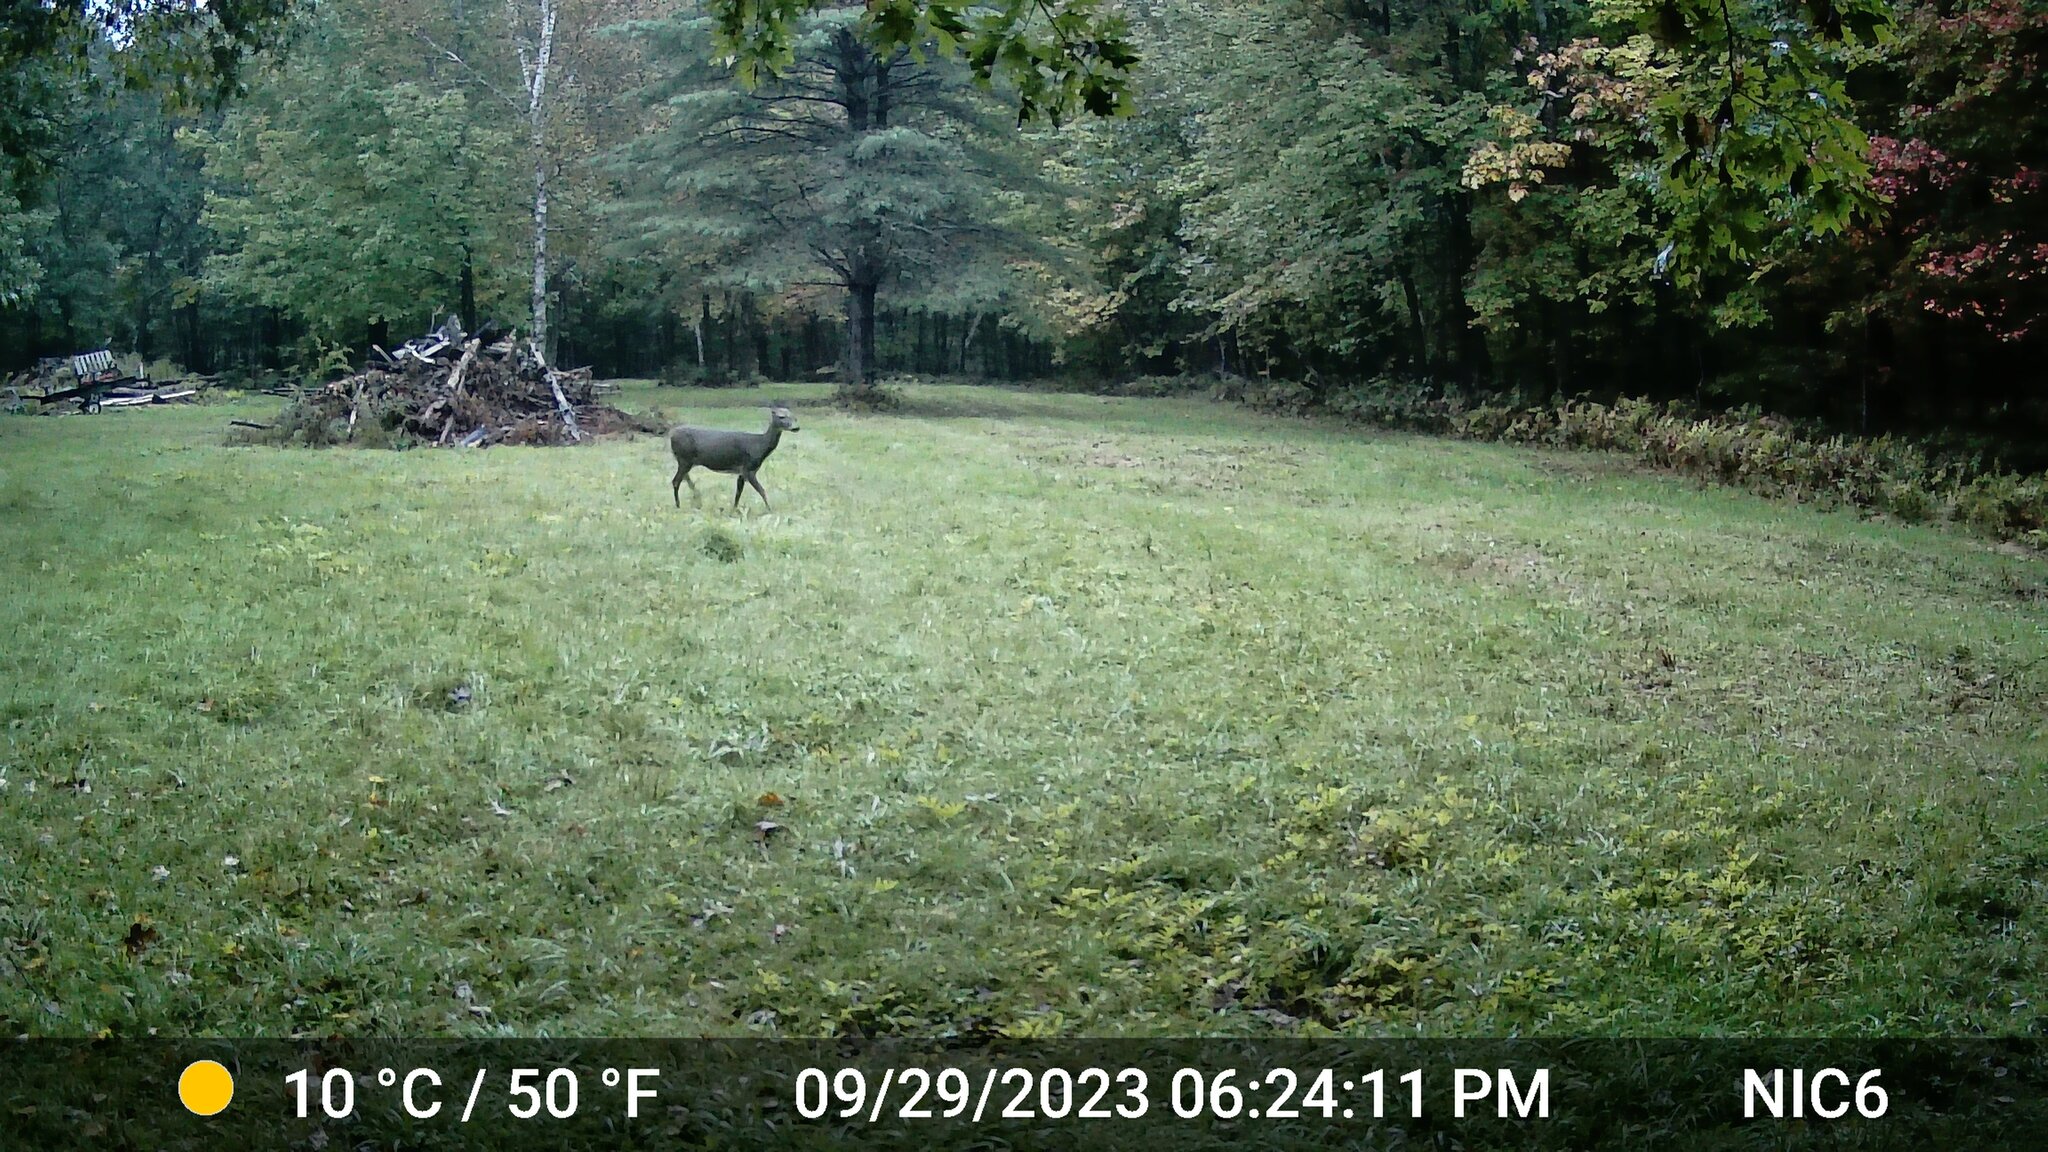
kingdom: Animalia
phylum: Chordata
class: Mammalia
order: Artiodactyla
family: Cervidae
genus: Odocoileus
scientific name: Odocoileus virginianus
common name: White-tailed deer
